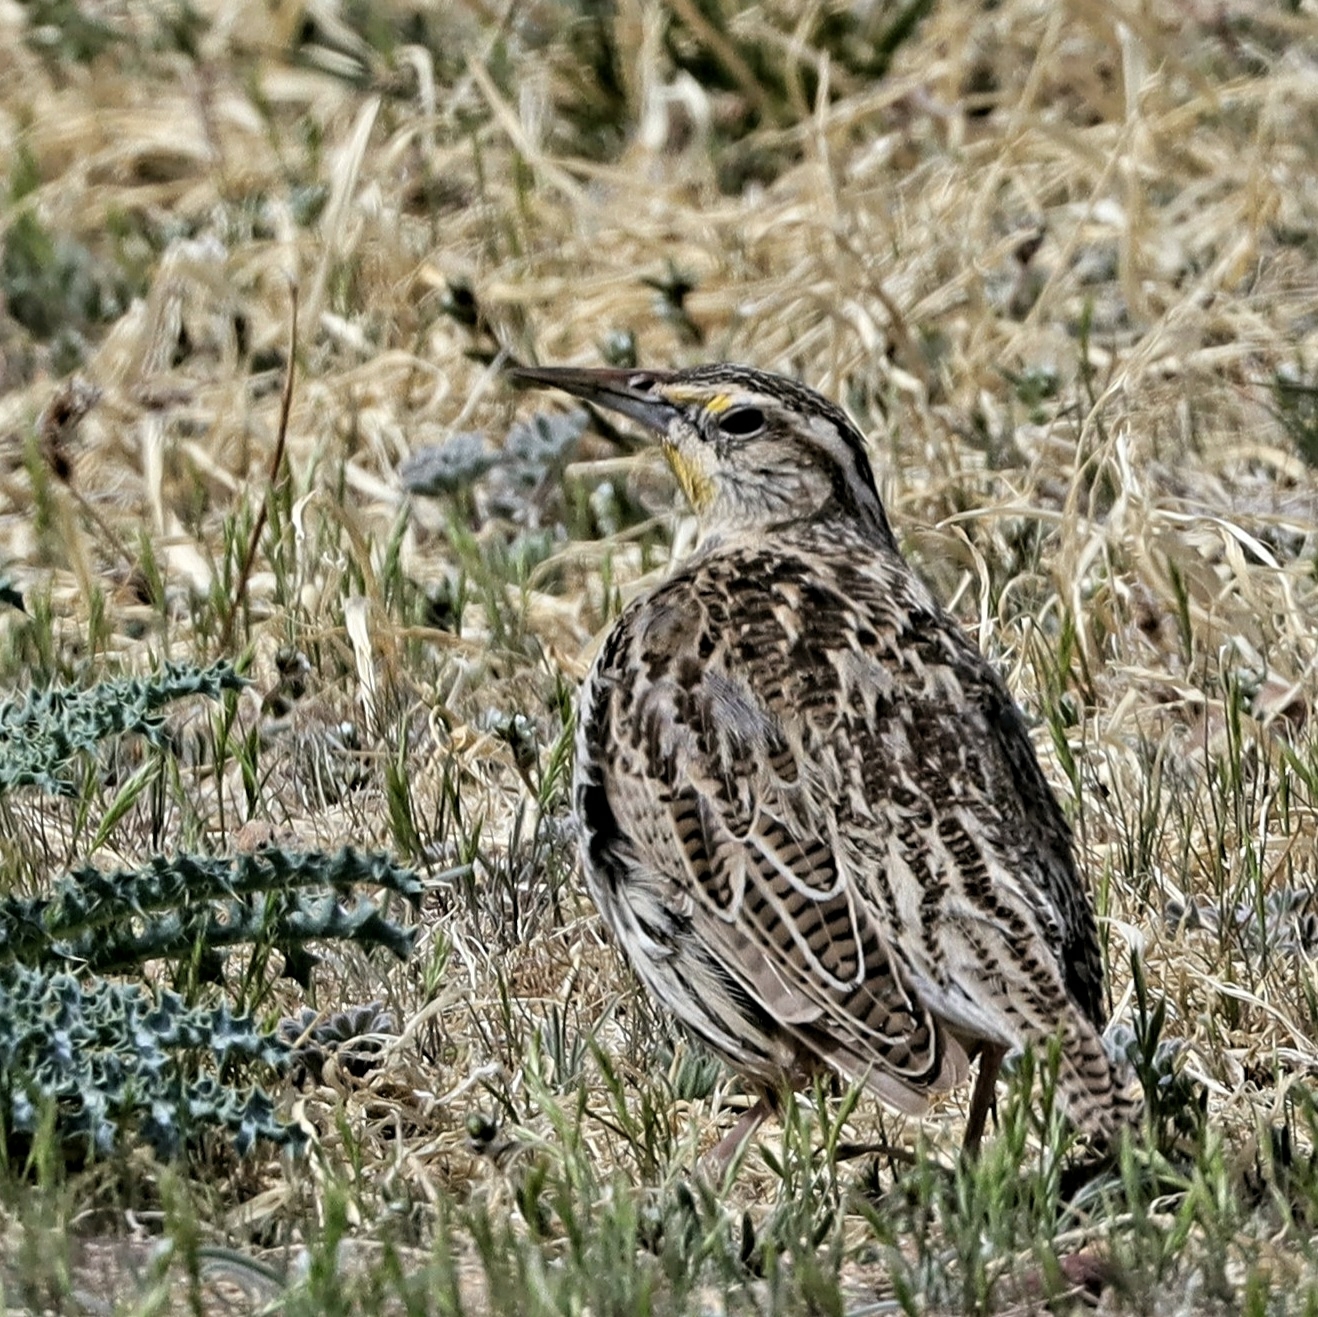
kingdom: Animalia
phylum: Chordata
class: Aves
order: Passeriformes
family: Icteridae
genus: Sturnella
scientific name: Sturnella neglecta
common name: Western meadowlark
